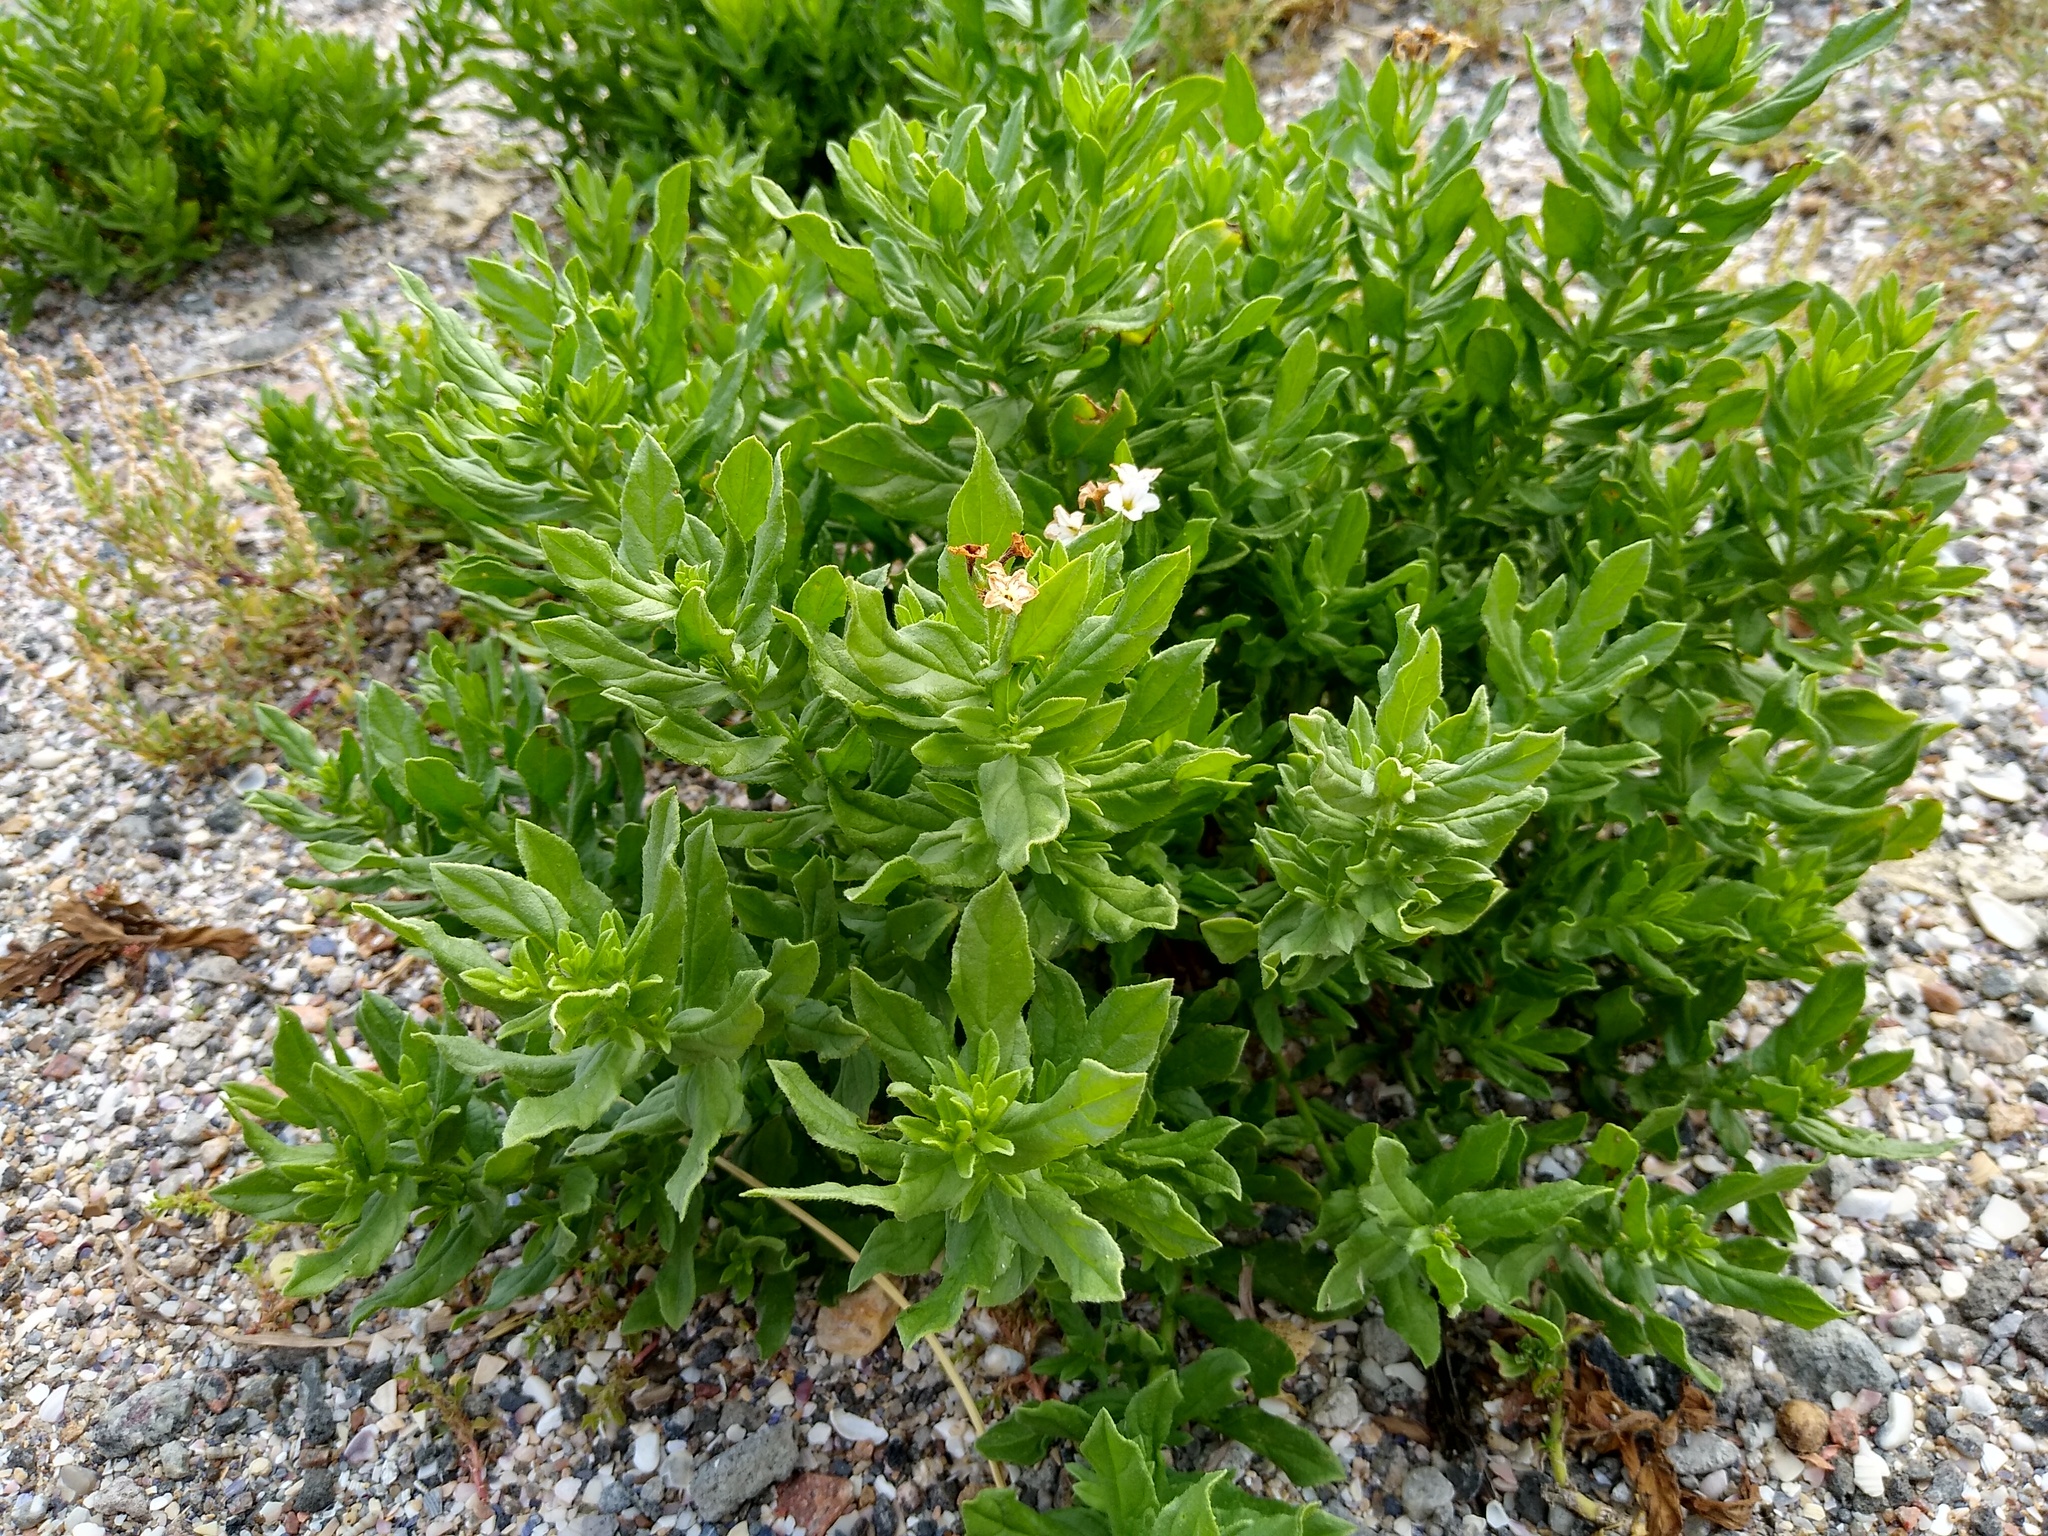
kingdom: Plantae
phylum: Tracheophyta
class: Magnoliopsida
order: Boraginales
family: Heliotropiaceae
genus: Tournefortia
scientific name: Tournefortia sibirica
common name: Siberian sea rosemary
